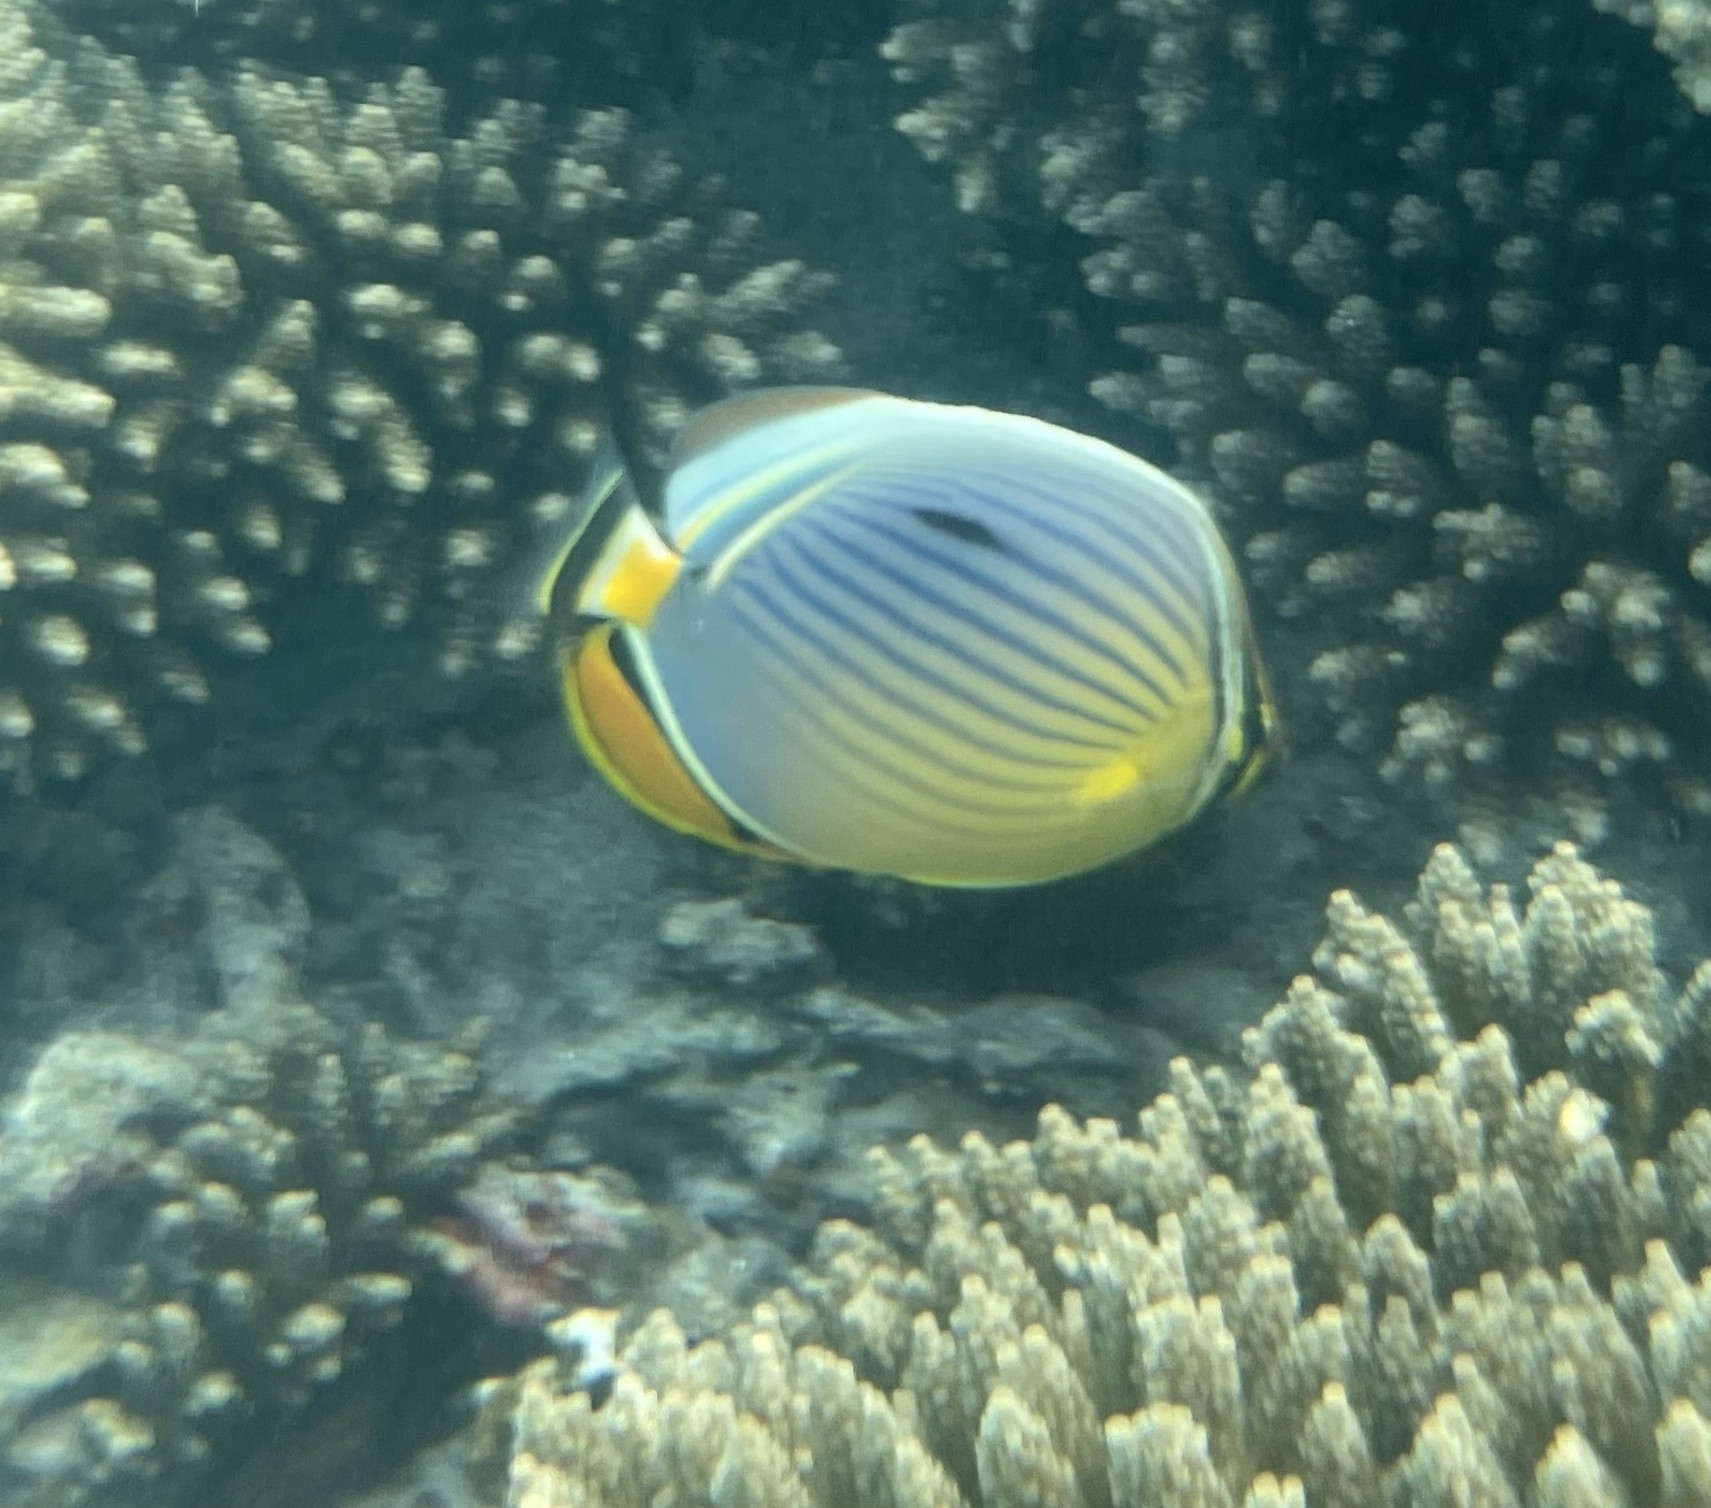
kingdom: Animalia
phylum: Chordata
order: Perciformes
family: Chaetodontidae
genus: Chaetodon
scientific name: Chaetodon trifasciatus
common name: Redfin butterflyfish
